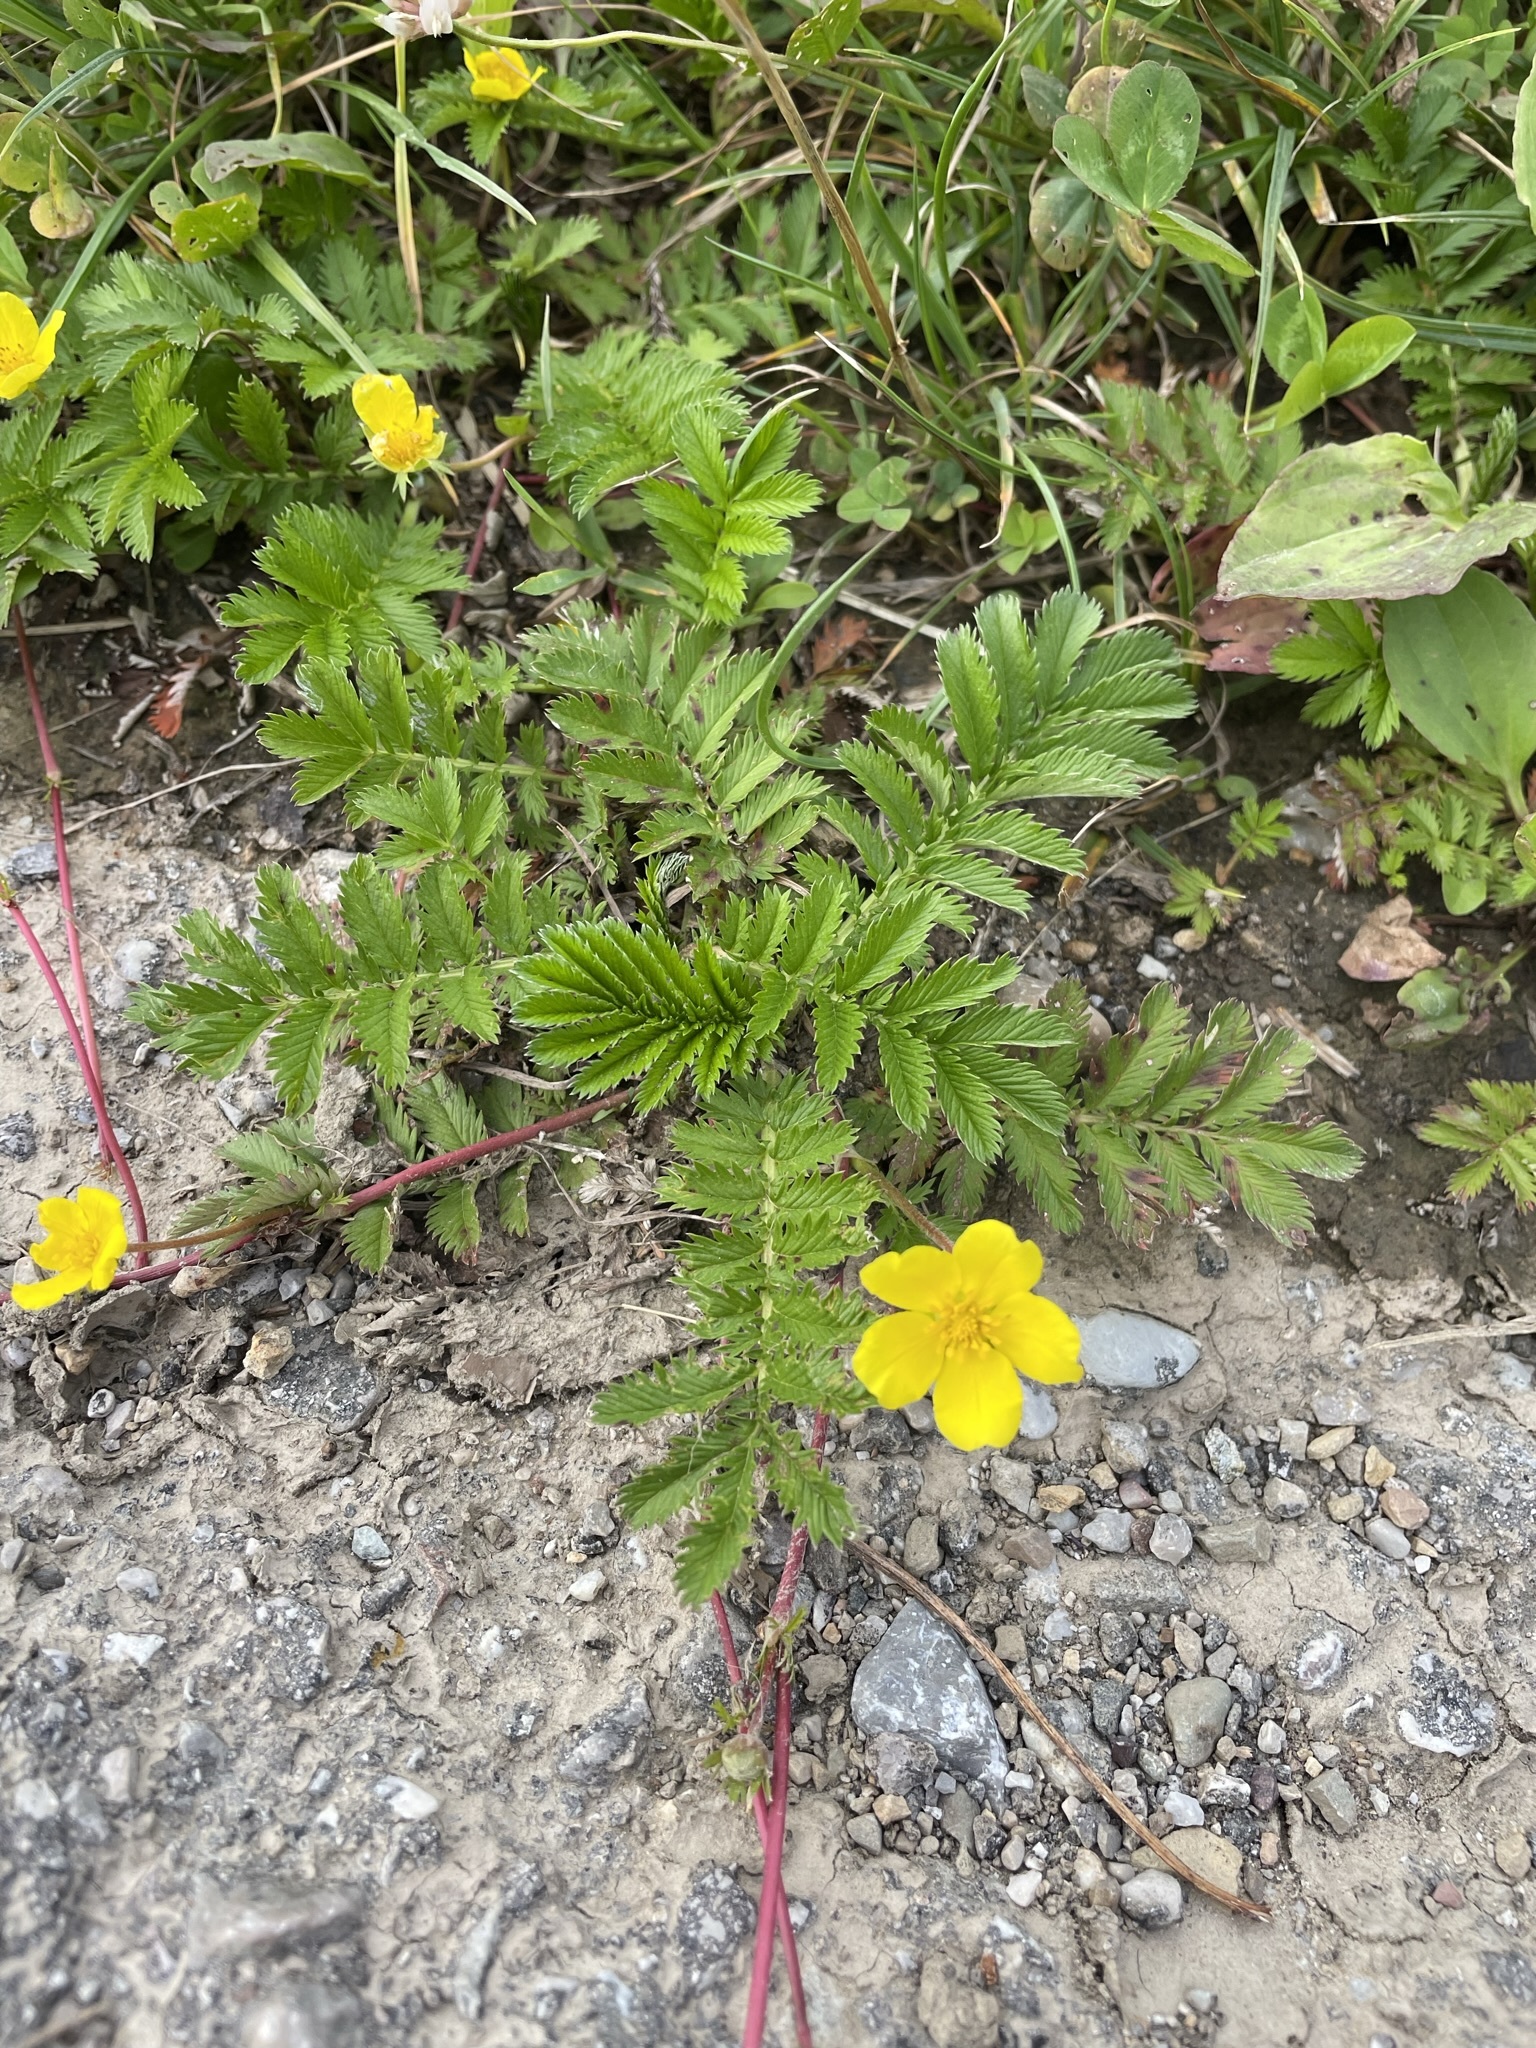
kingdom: Plantae
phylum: Tracheophyta
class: Magnoliopsida
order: Rosales
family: Rosaceae
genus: Argentina
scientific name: Argentina anserina
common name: Common silverweed
